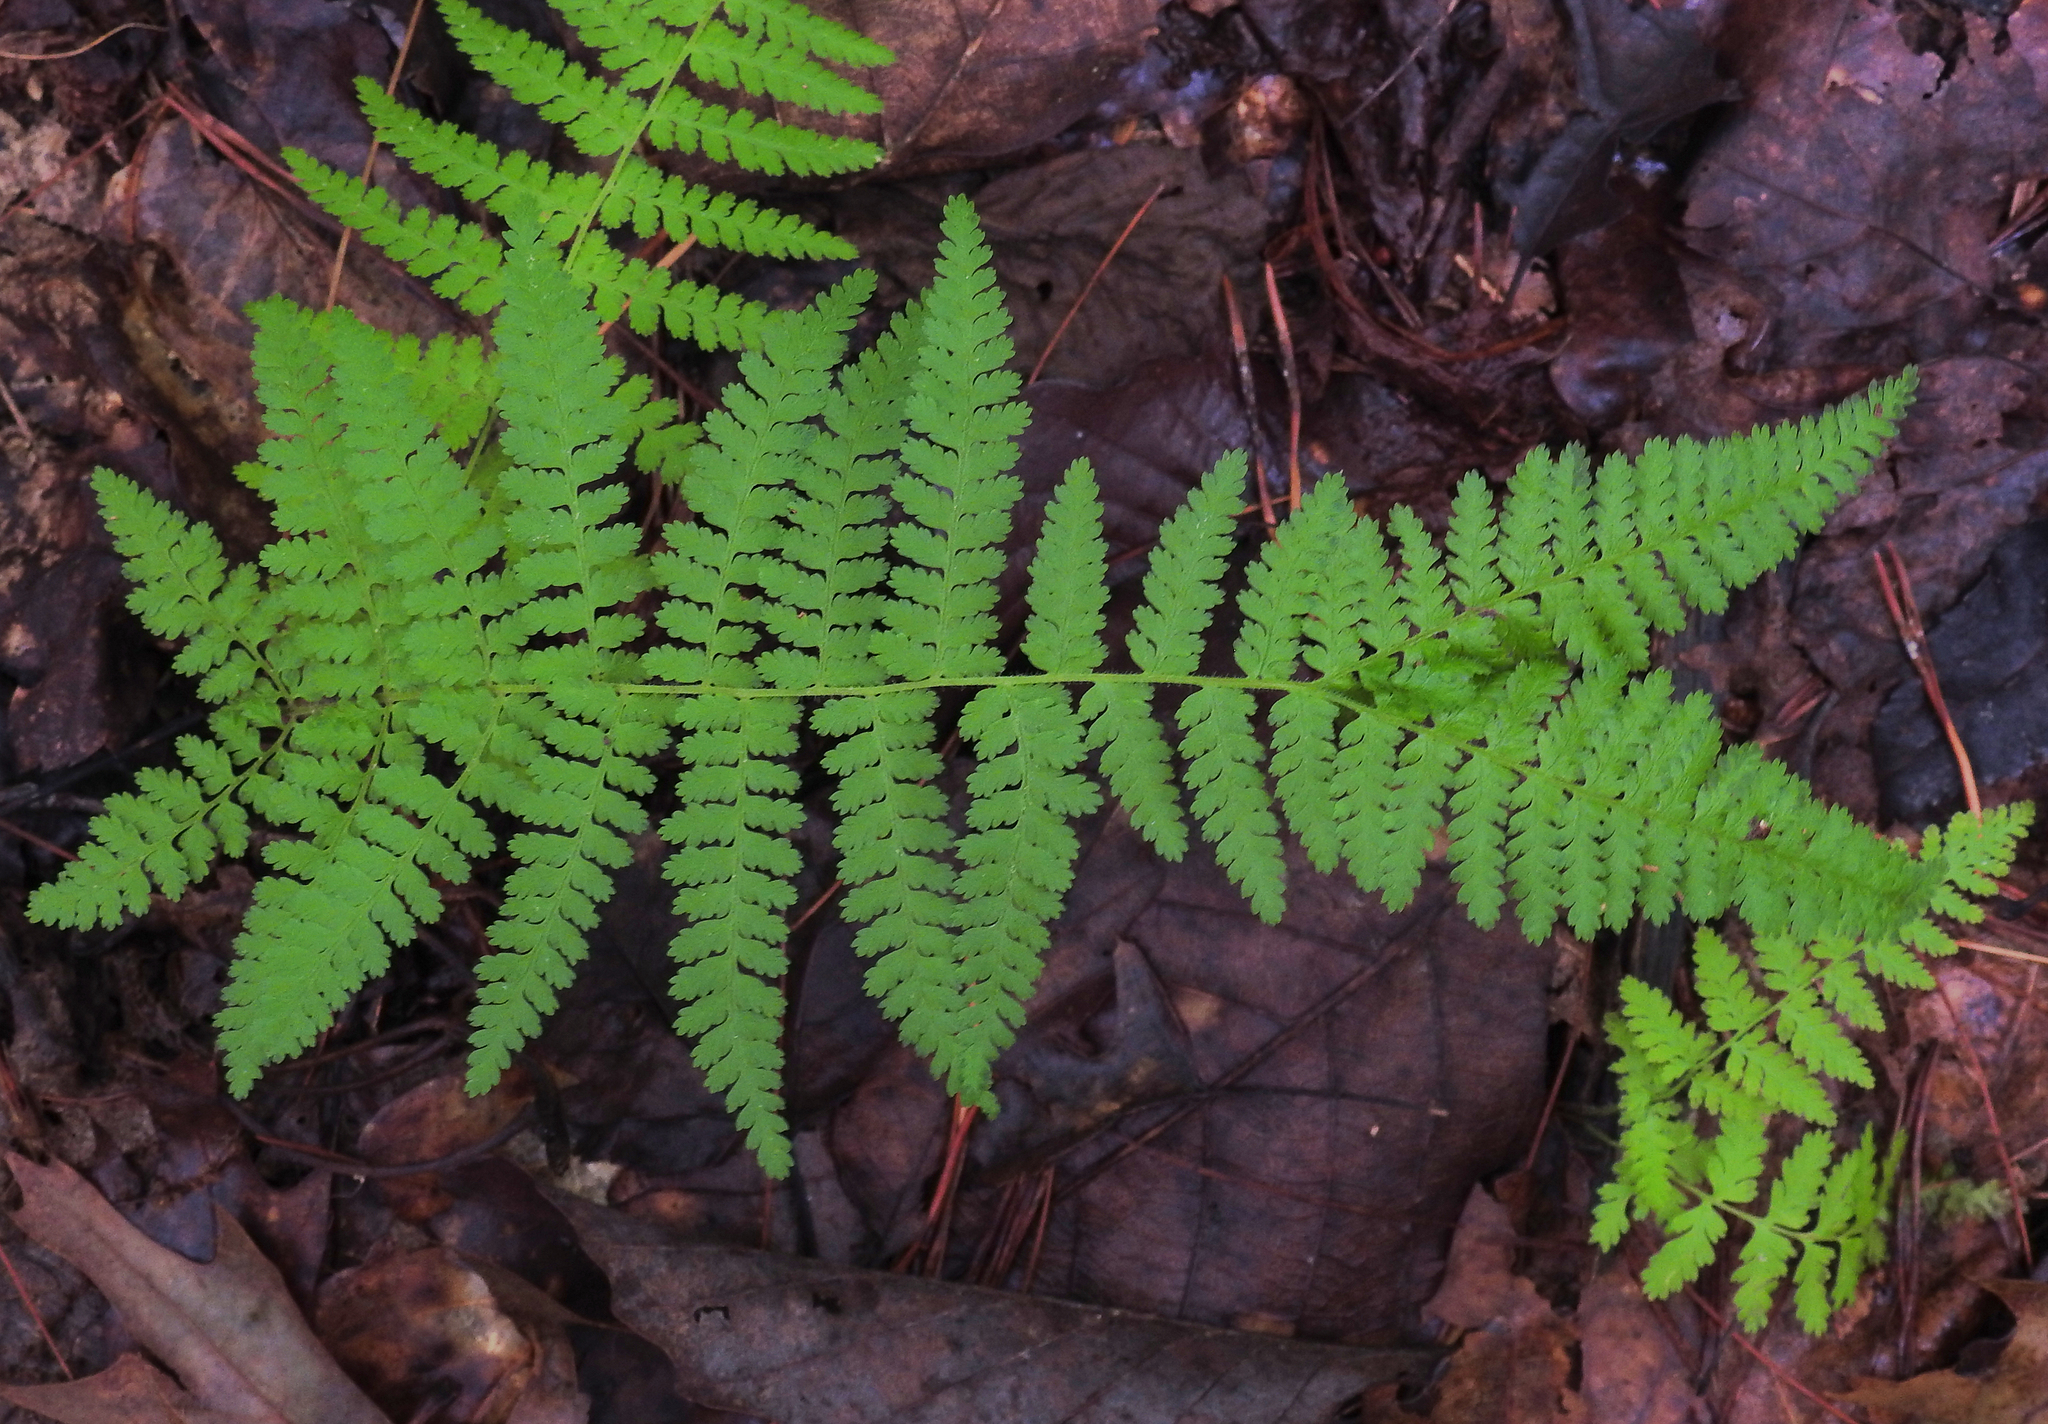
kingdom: Plantae
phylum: Tracheophyta
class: Polypodiopsida
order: Polypodiales
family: Dennstaedtiaceae
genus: Sitobolium
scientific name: Sitobolium punctilobum
